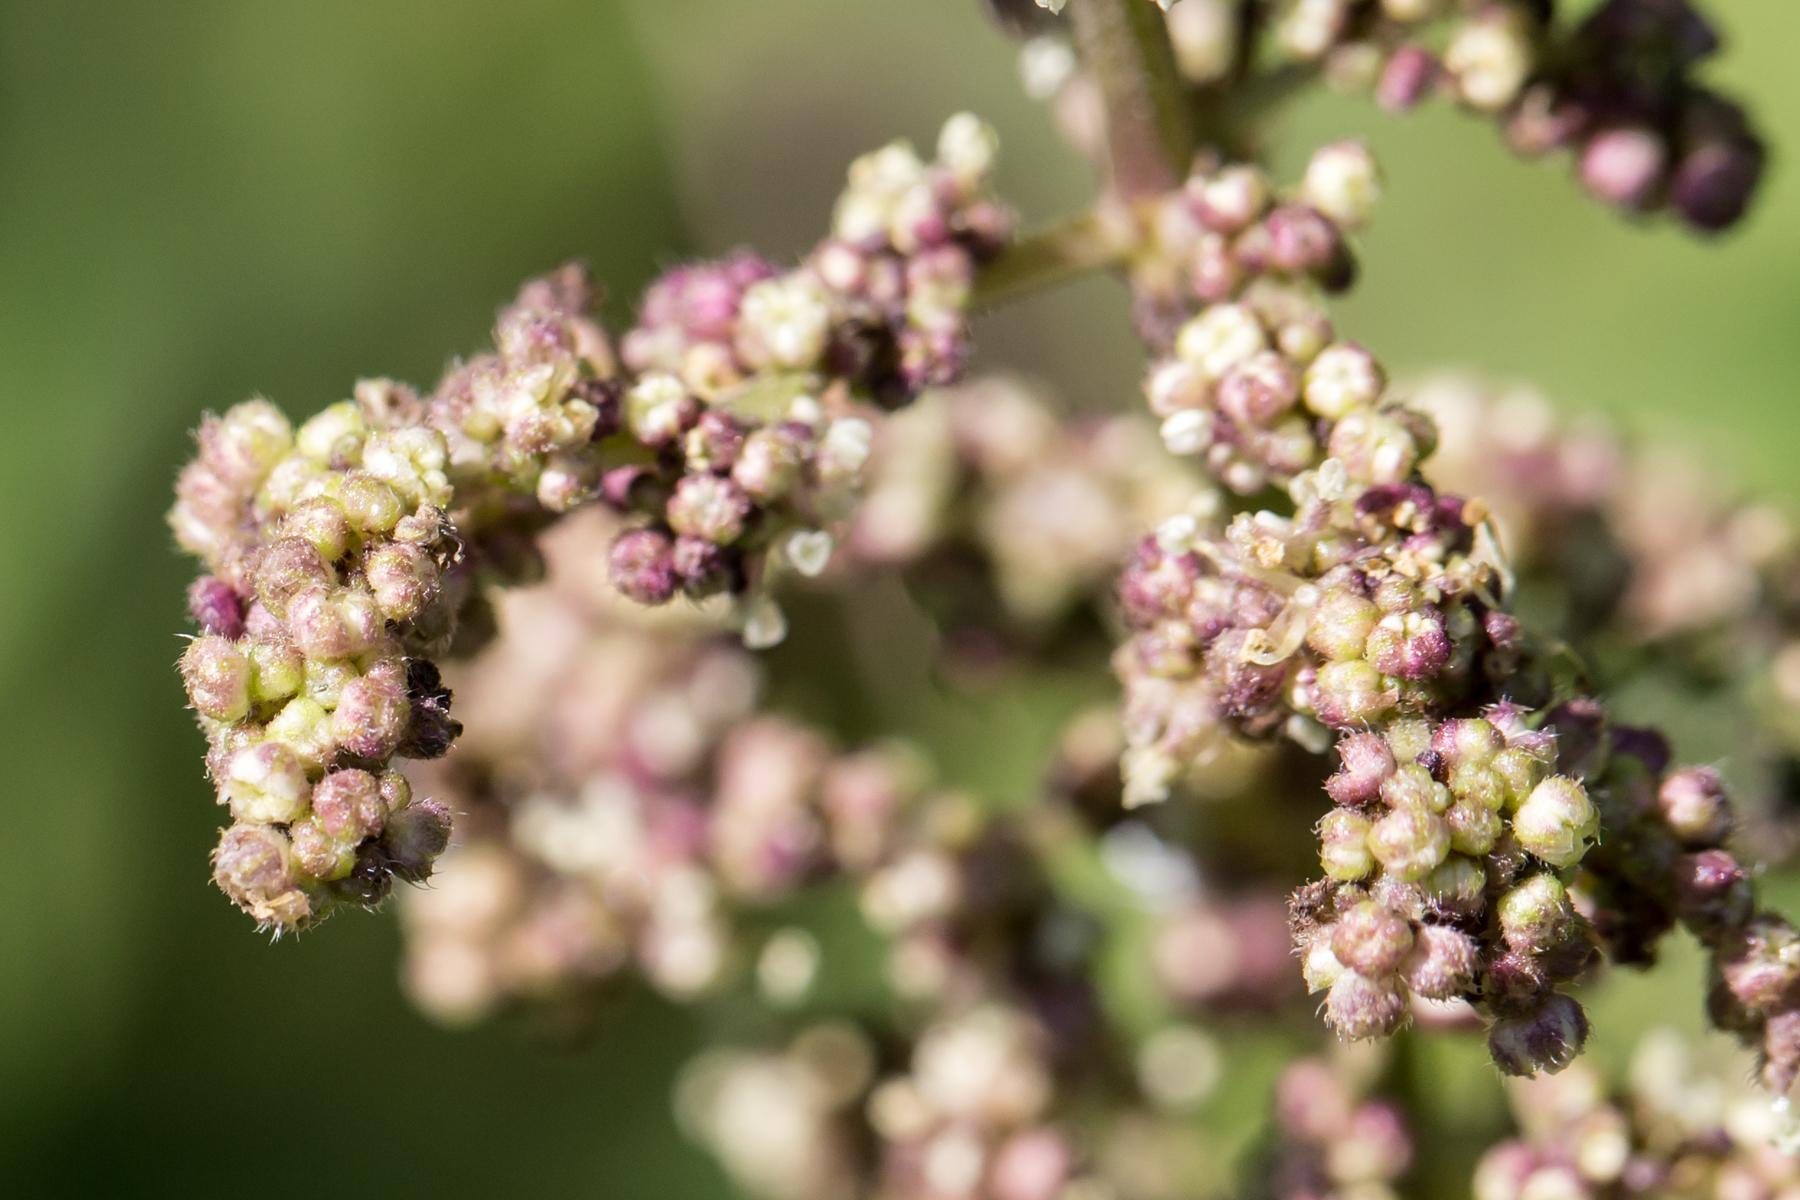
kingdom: Plantae
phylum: Tracheophyta
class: Magnoliopsida
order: Rosales
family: Urticaceae
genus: Urtica
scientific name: Urtica dioica
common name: Common nettle
